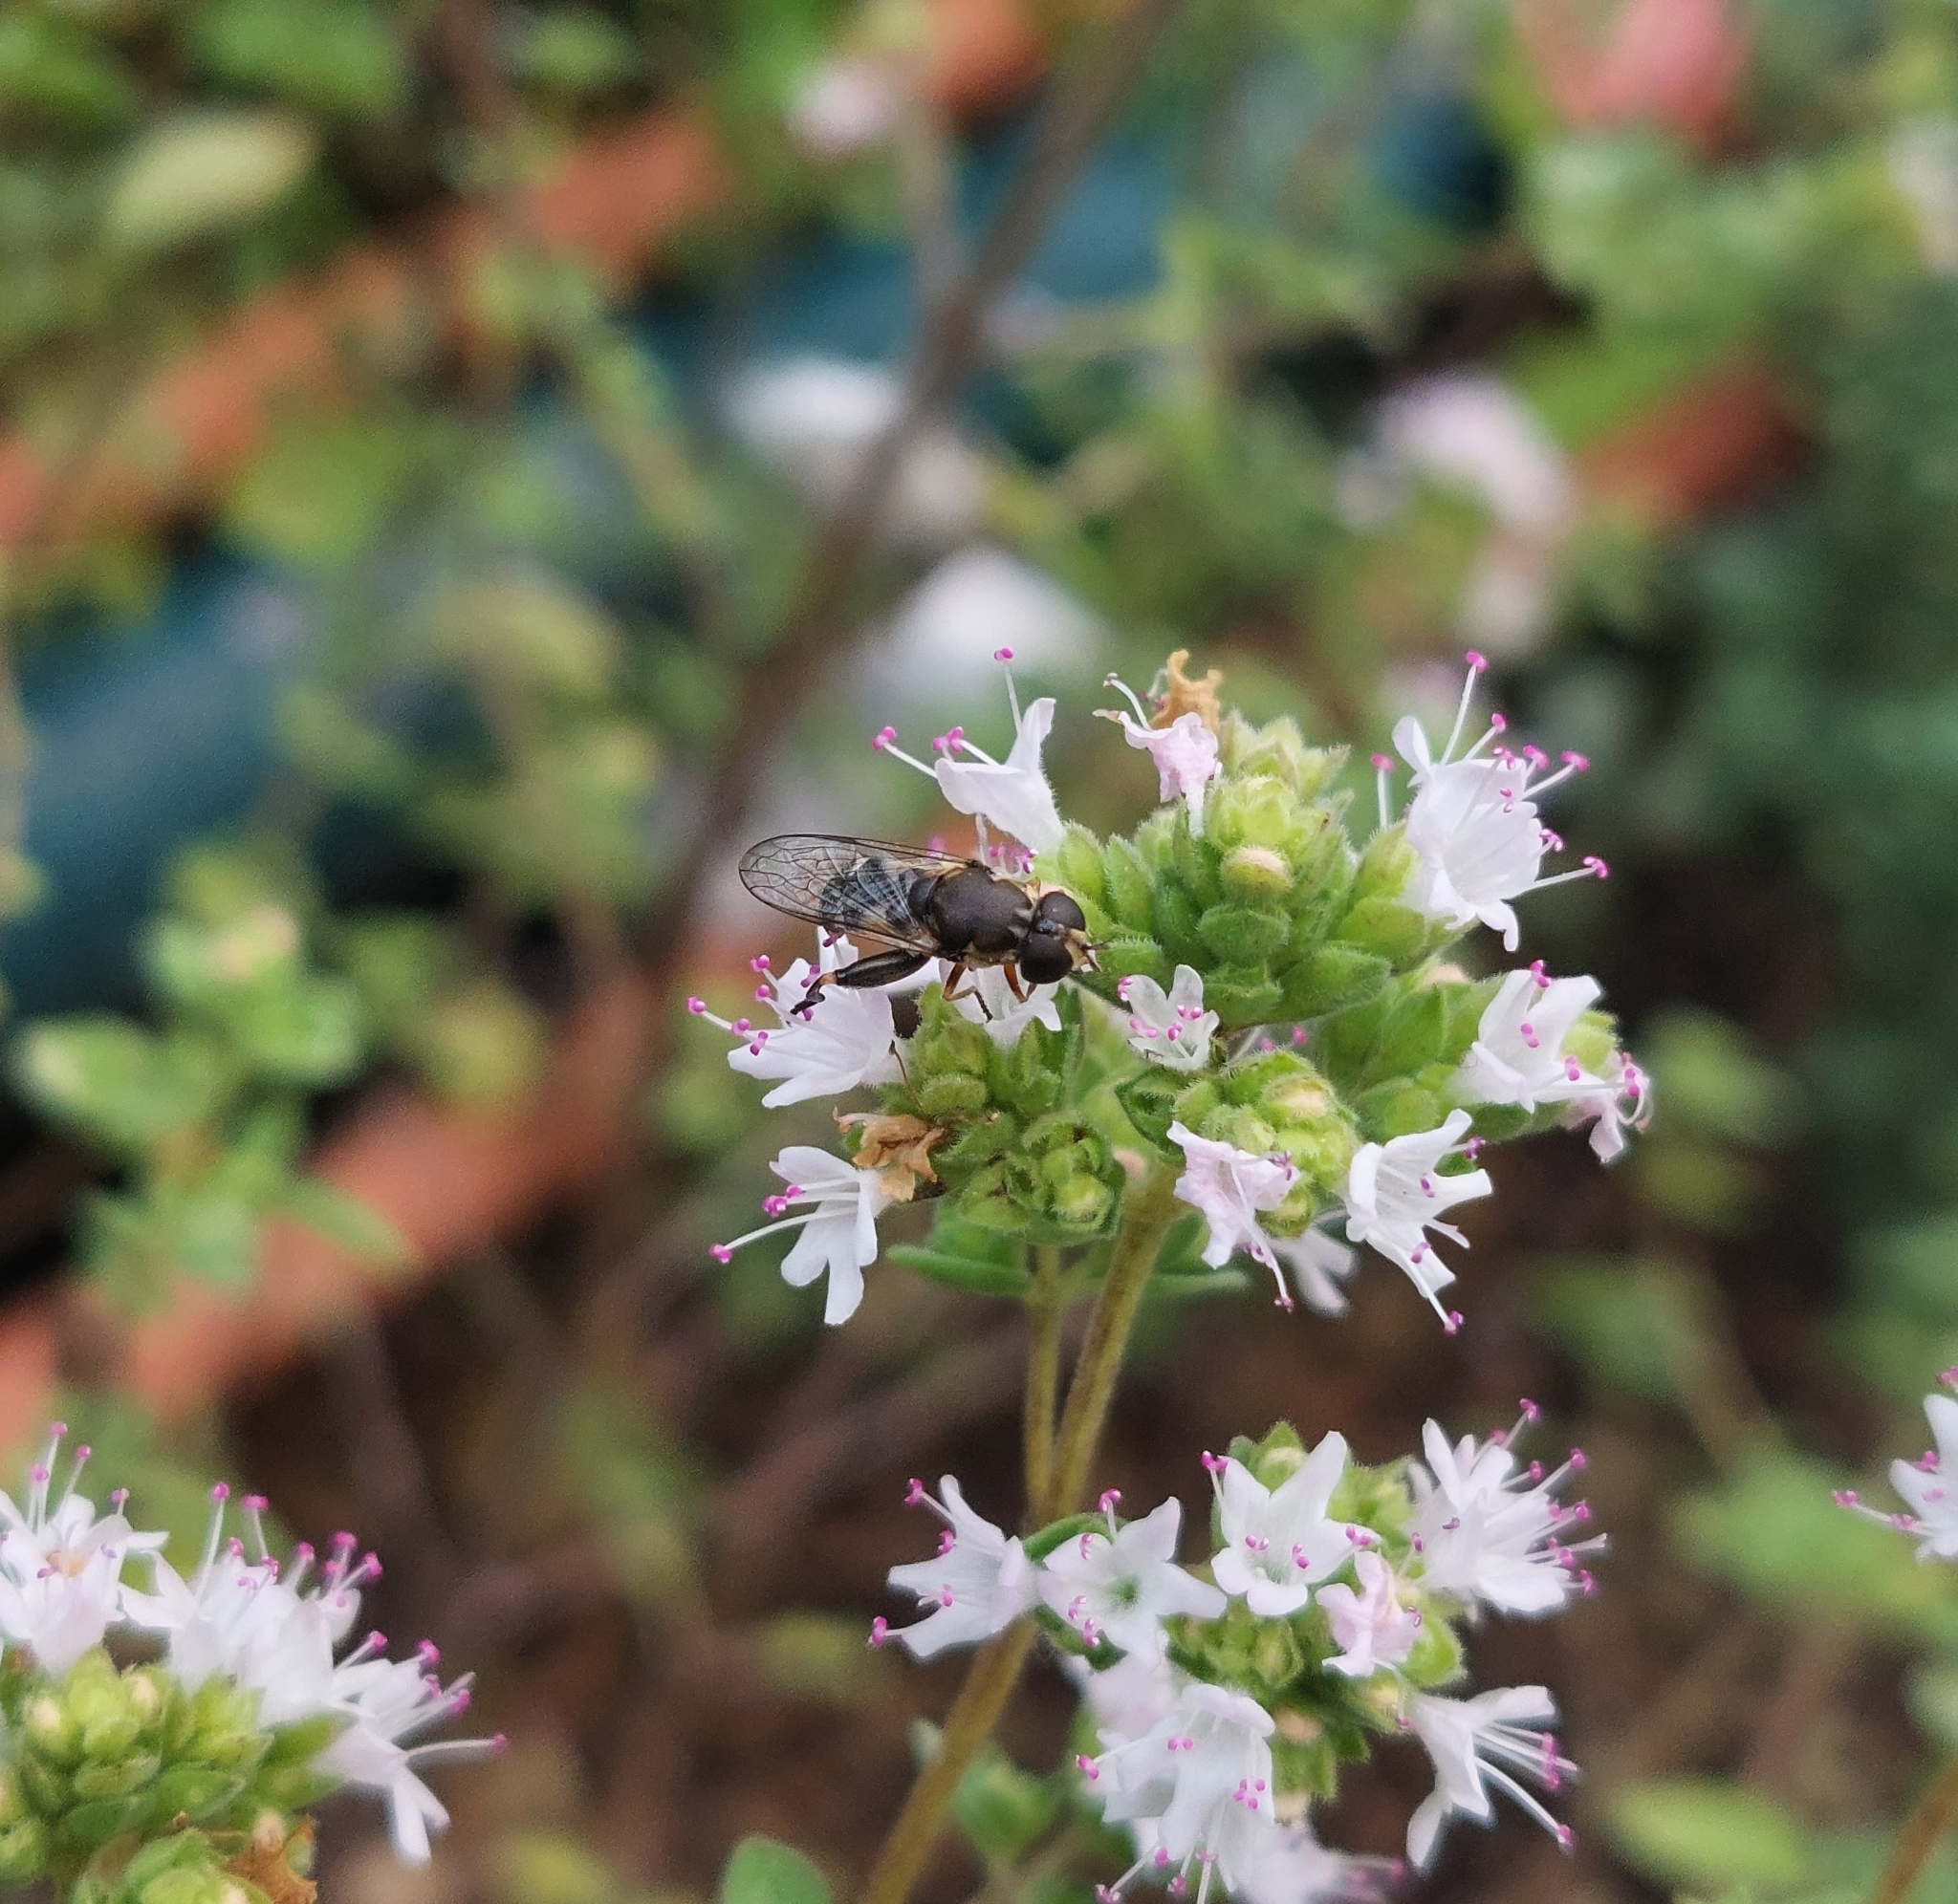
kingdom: Animalia
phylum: Arthropoda
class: Insecta
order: Diptera
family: Syrphidae
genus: Syritta
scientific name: Syritta pipiens
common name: Hover fly
